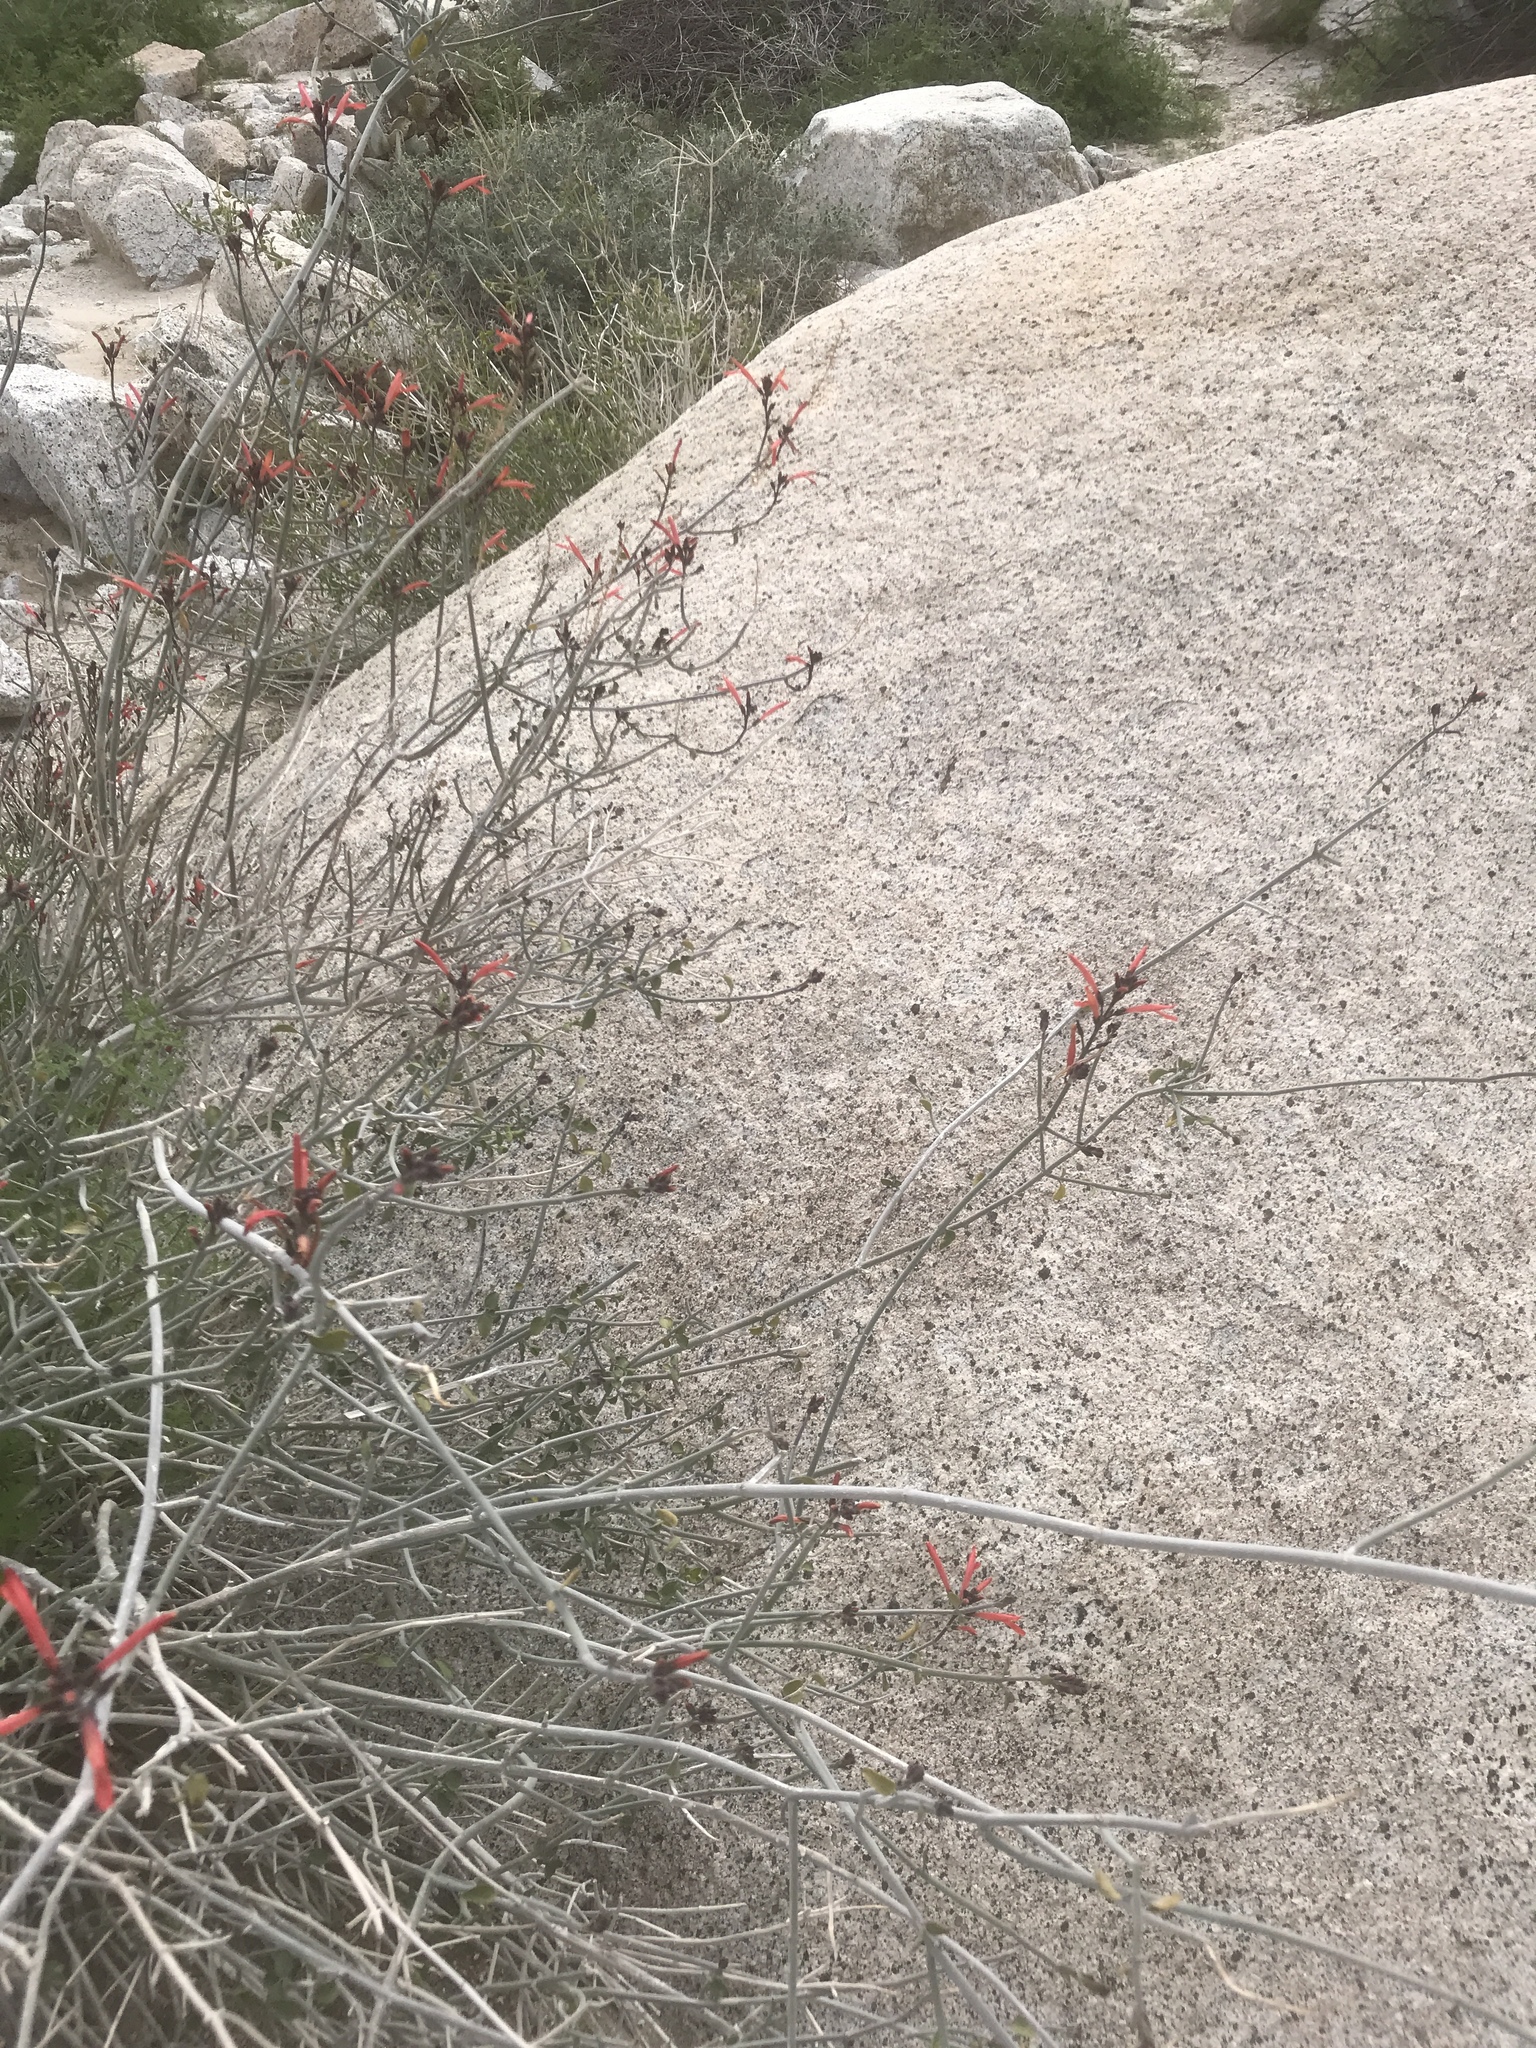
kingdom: Plantae
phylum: Tracheophyta
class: Magnoliopsida
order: Lamiales
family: Acanthaceae
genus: Justicia
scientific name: Justicia californica
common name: Chuparosa-honeysuckle
